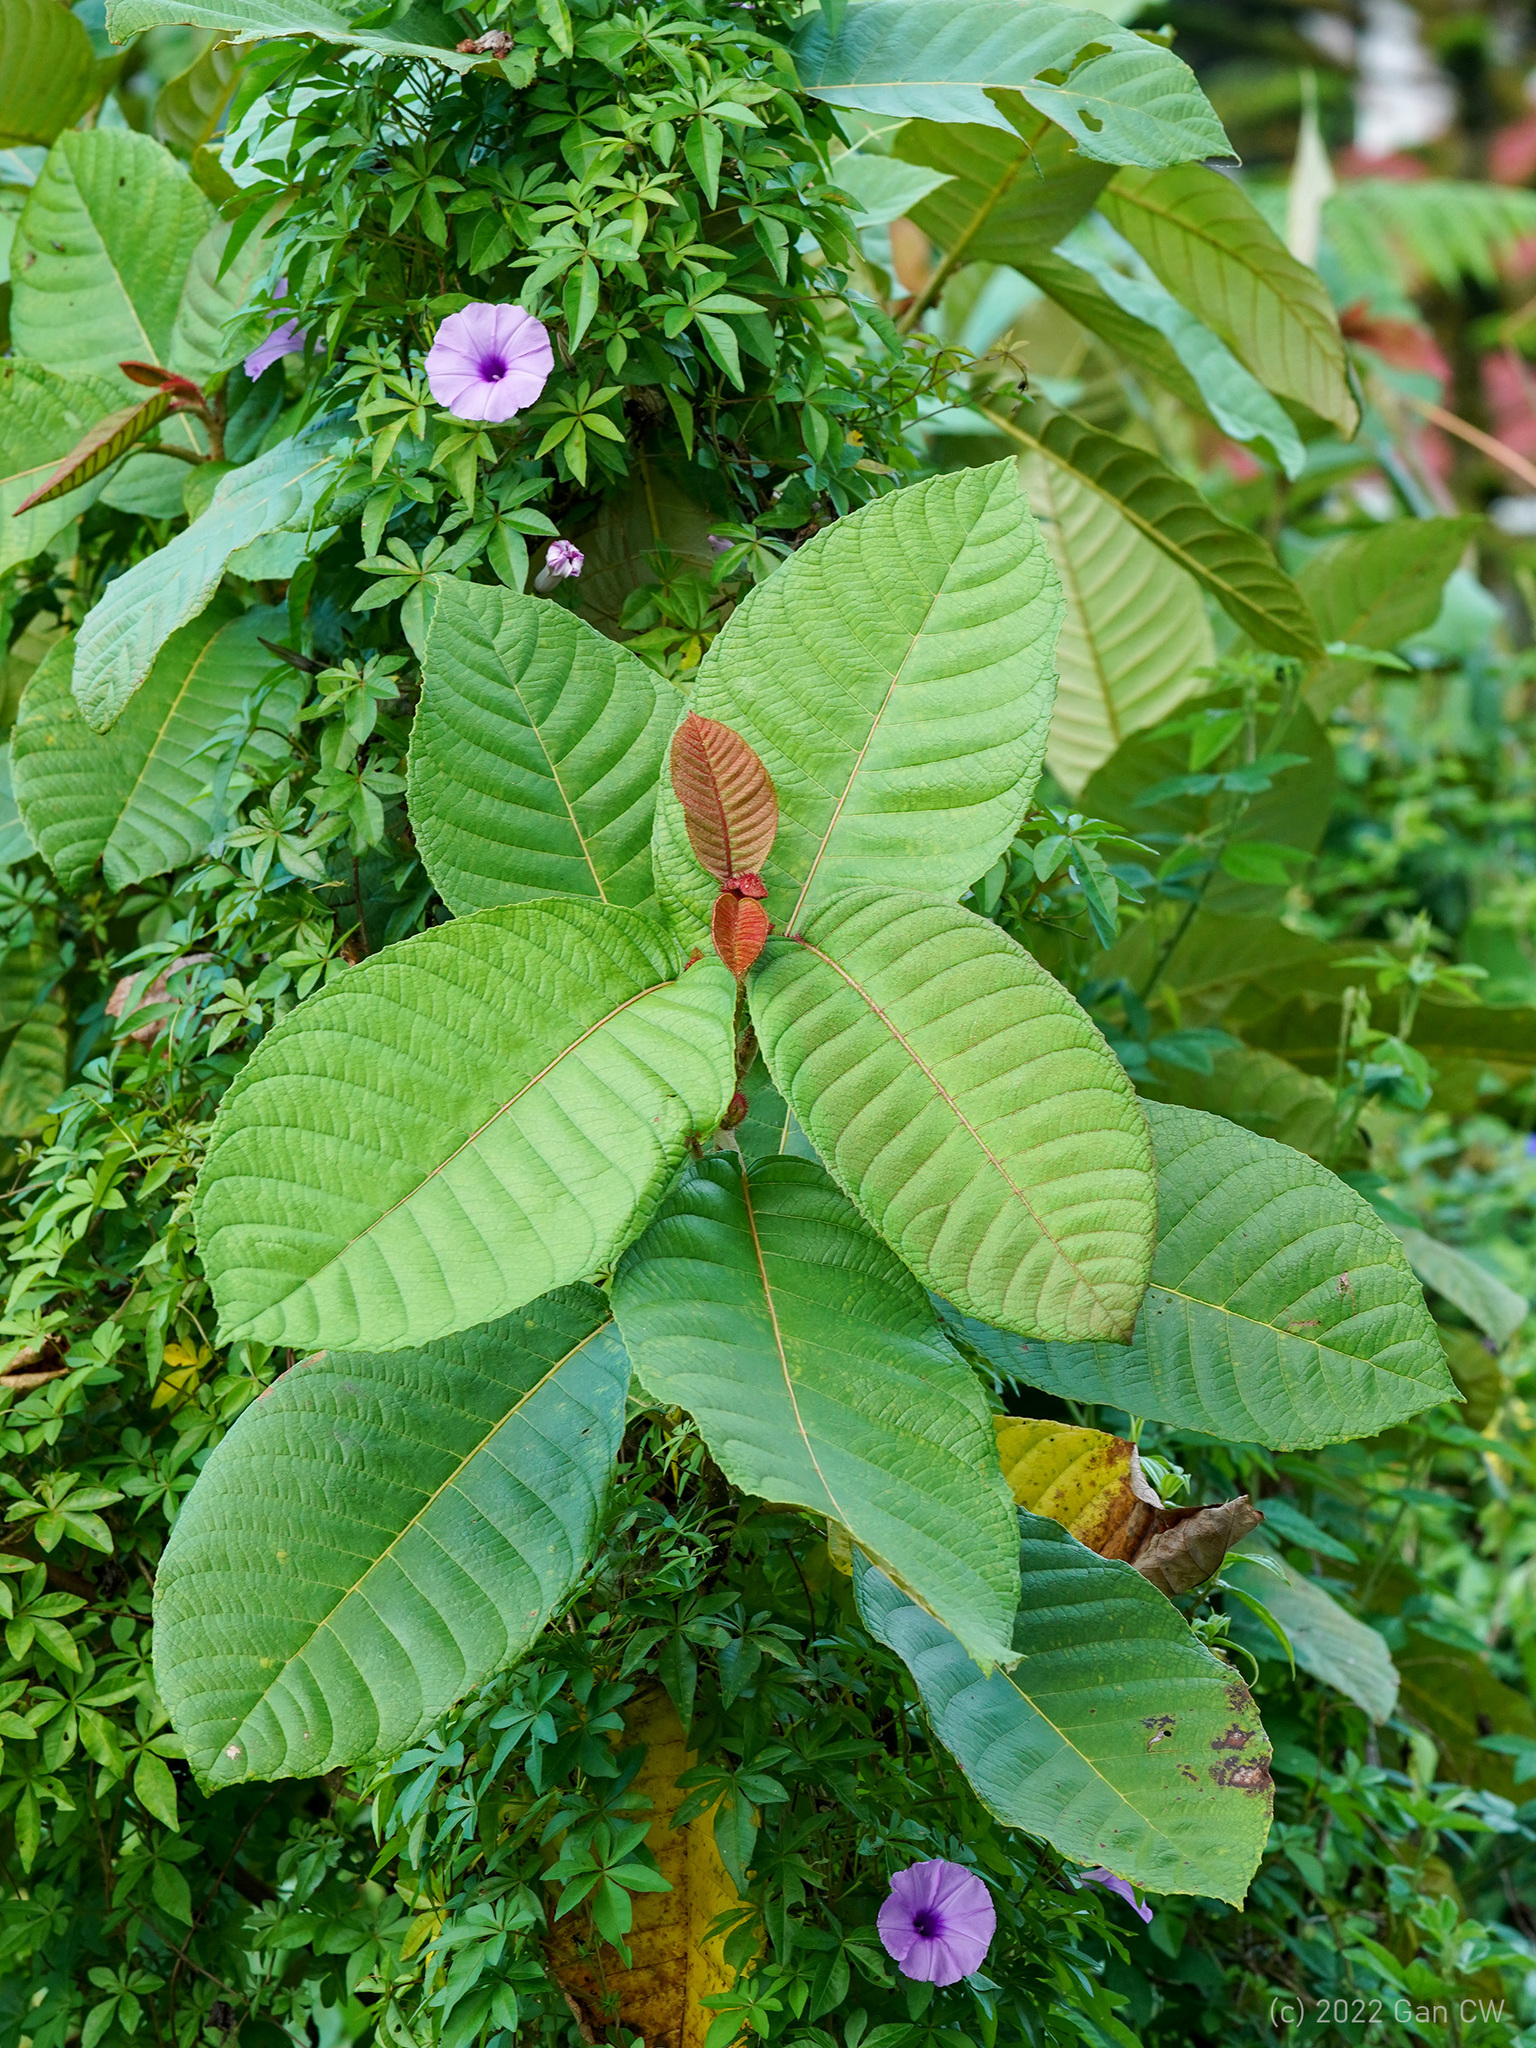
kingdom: Plantae
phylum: Tracheophyta
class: Magnoliopsida
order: Ericales
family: Actinidiaceae
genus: Saurauia
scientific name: Saurauia malayana
